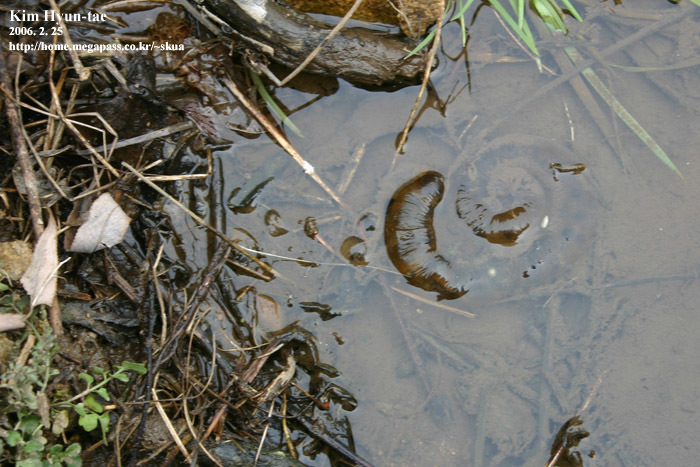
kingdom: Animalia
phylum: Chordata
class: Amphibia
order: Caudata
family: Hynobiidae
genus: Hynobius
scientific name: Hynobius leechii
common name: Gensan salamander
